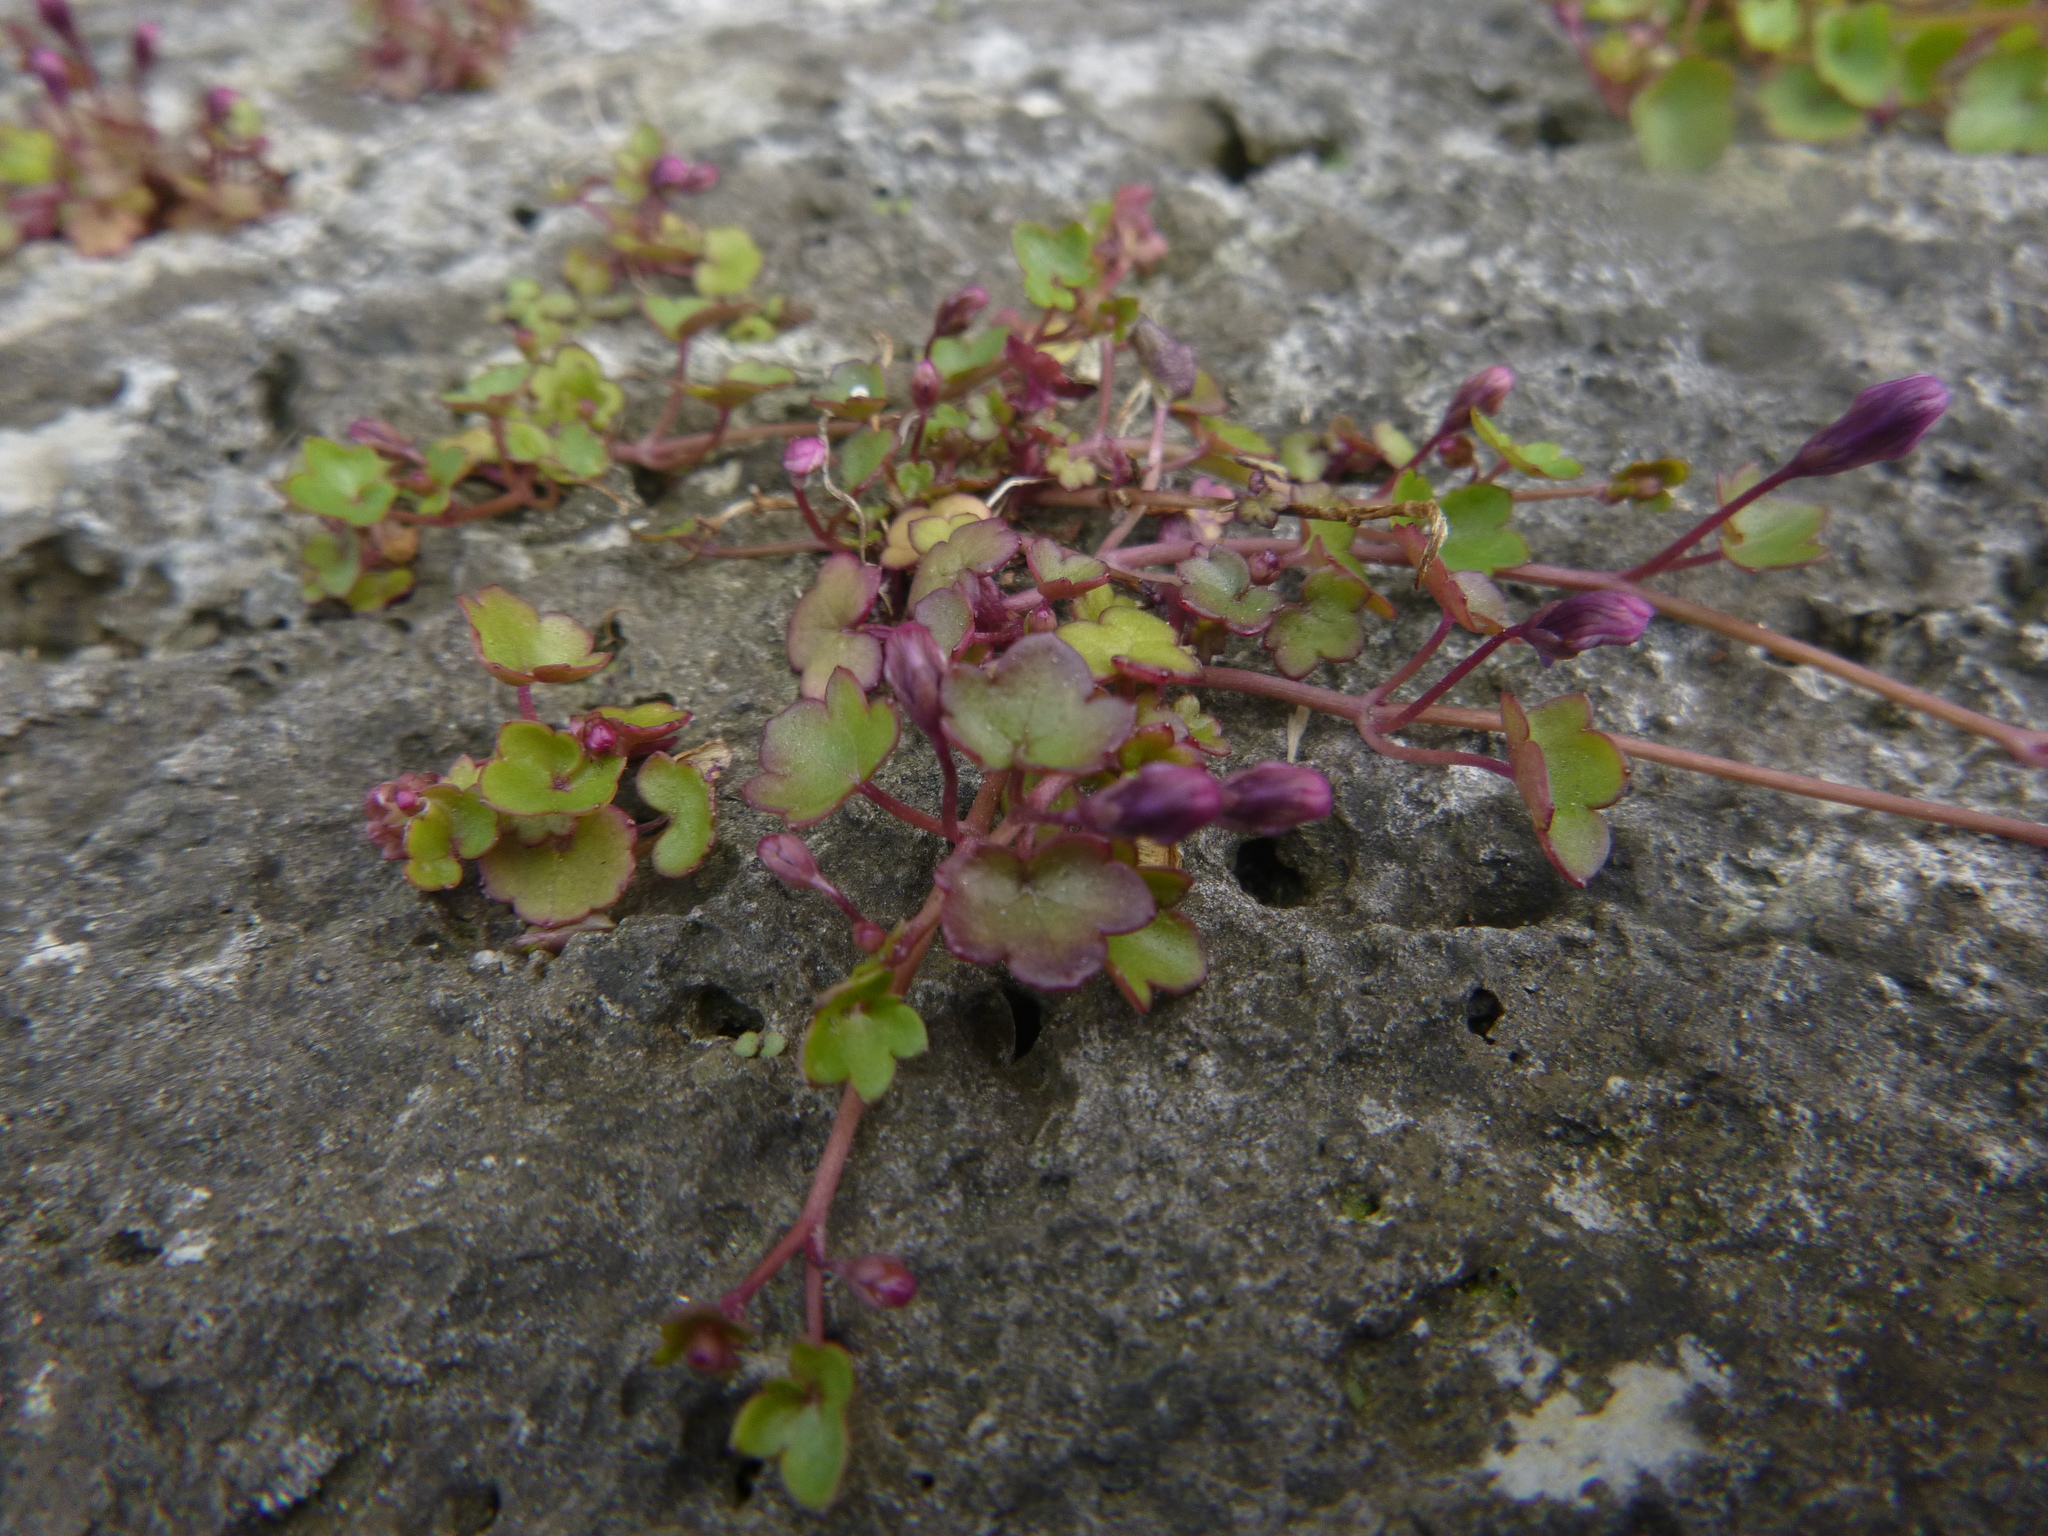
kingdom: Plantae
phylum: Tracheophyta
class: Magnoliopsida
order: Lamiales
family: Plantaginaceae
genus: Cymbalaria
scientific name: Cymbalaria muralis
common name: Ivy-leaved toadflax
